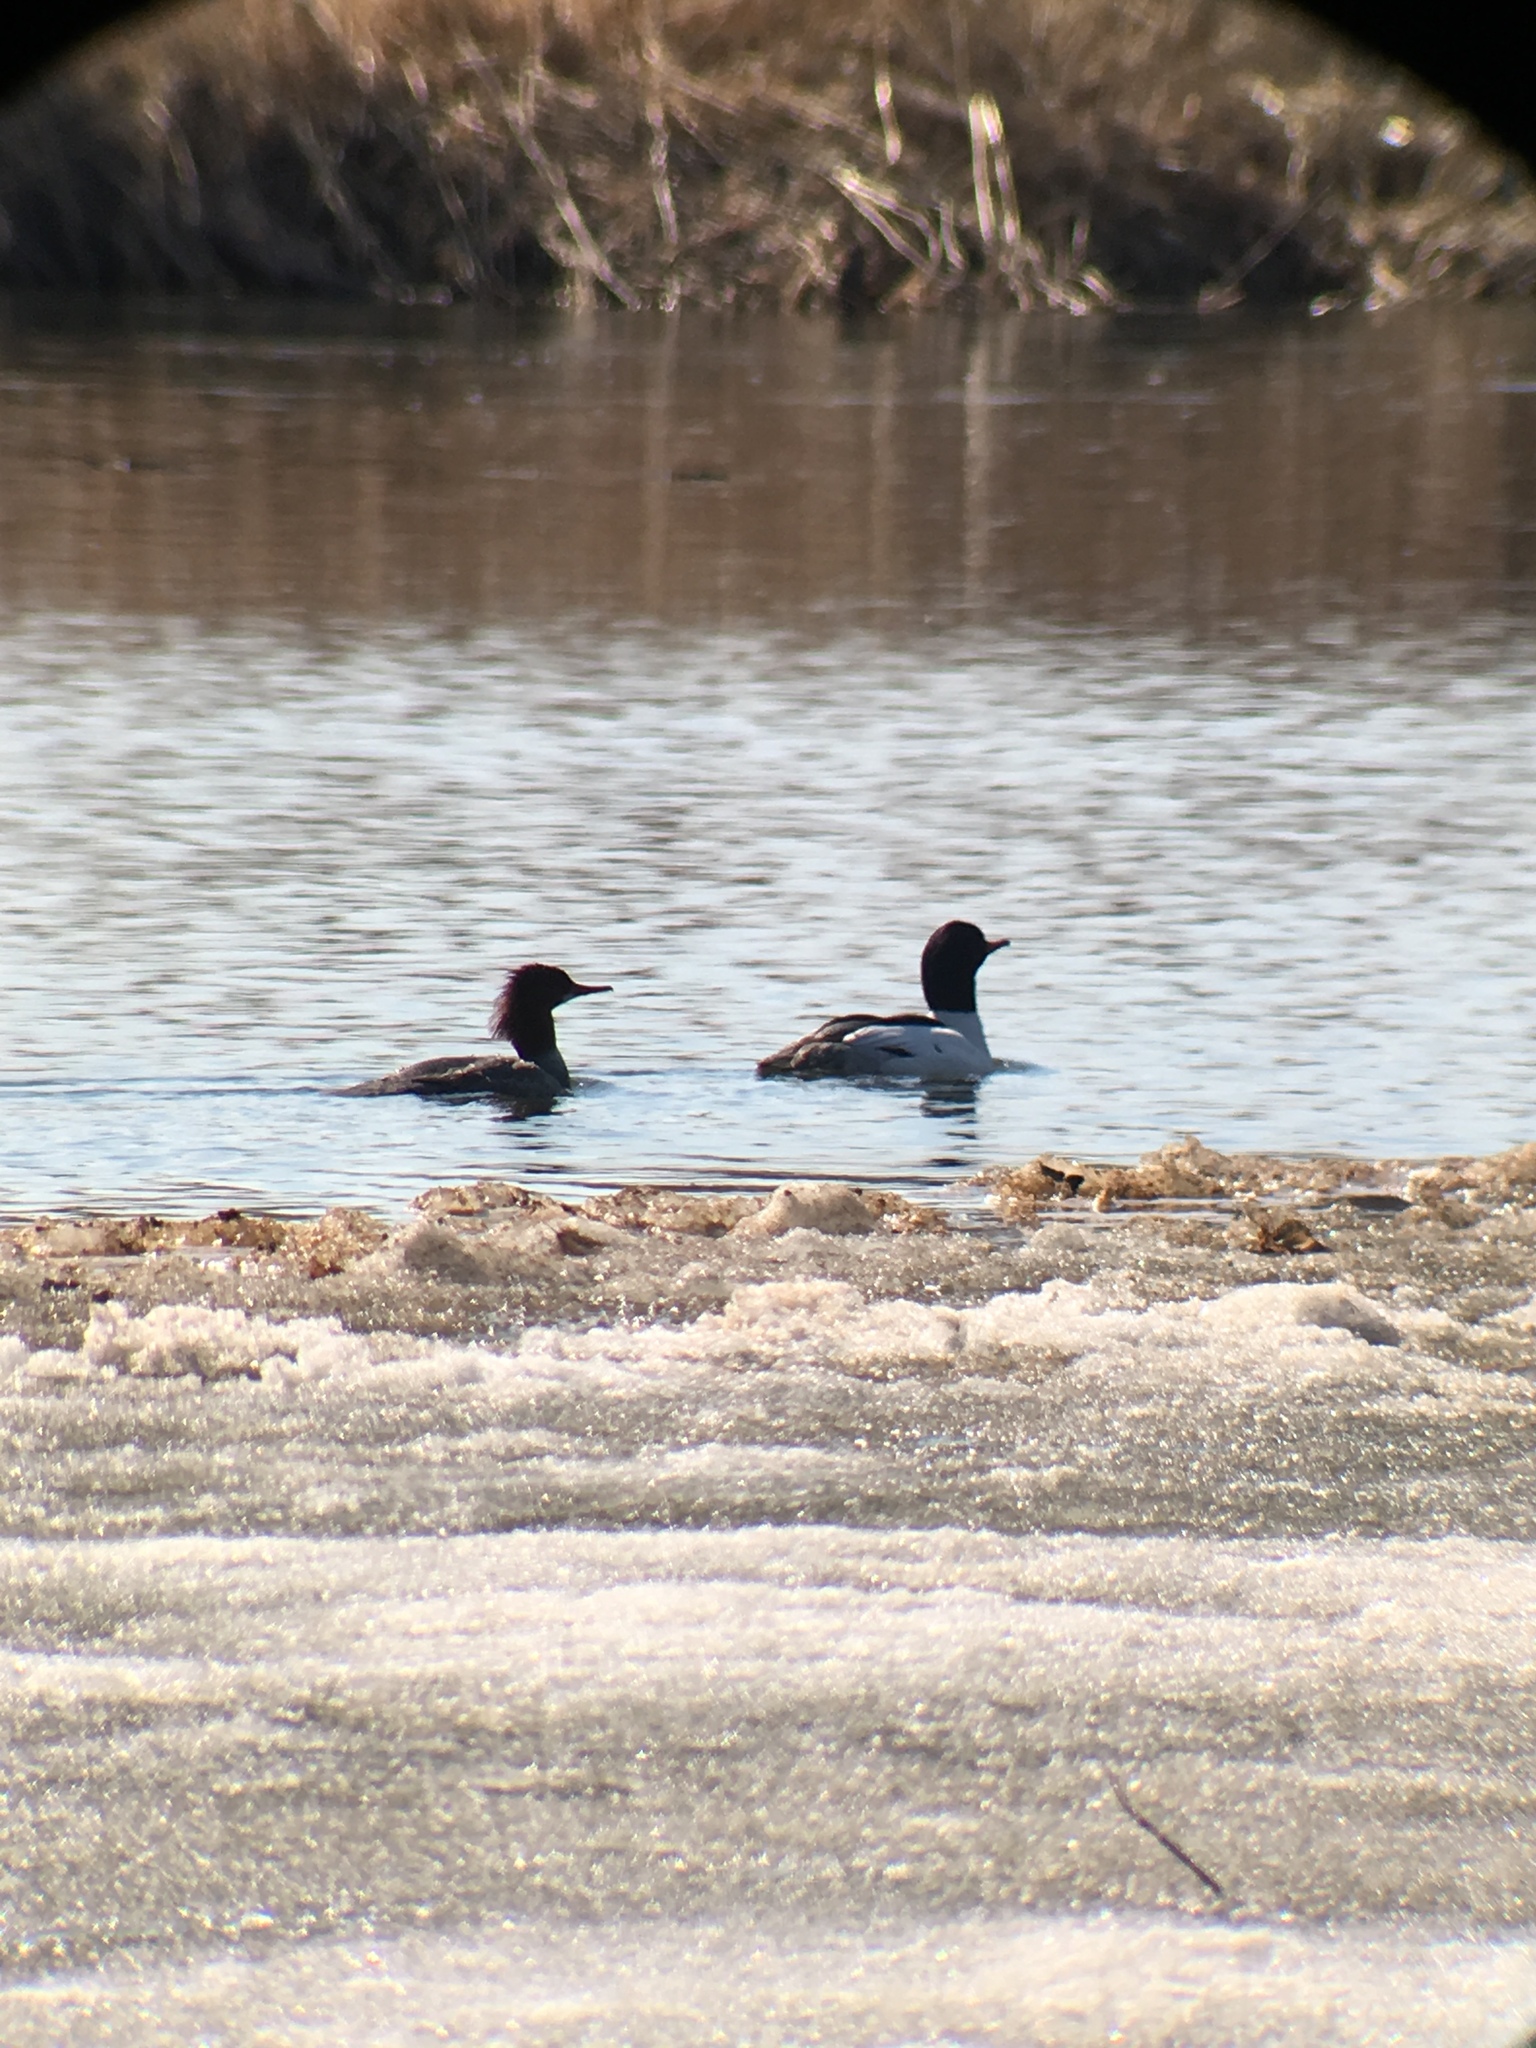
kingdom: Animalia
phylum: Chordata
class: Aves
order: Anseriformes
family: Anatidae
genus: Mergus
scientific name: Mergus merganser
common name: Common merganser
